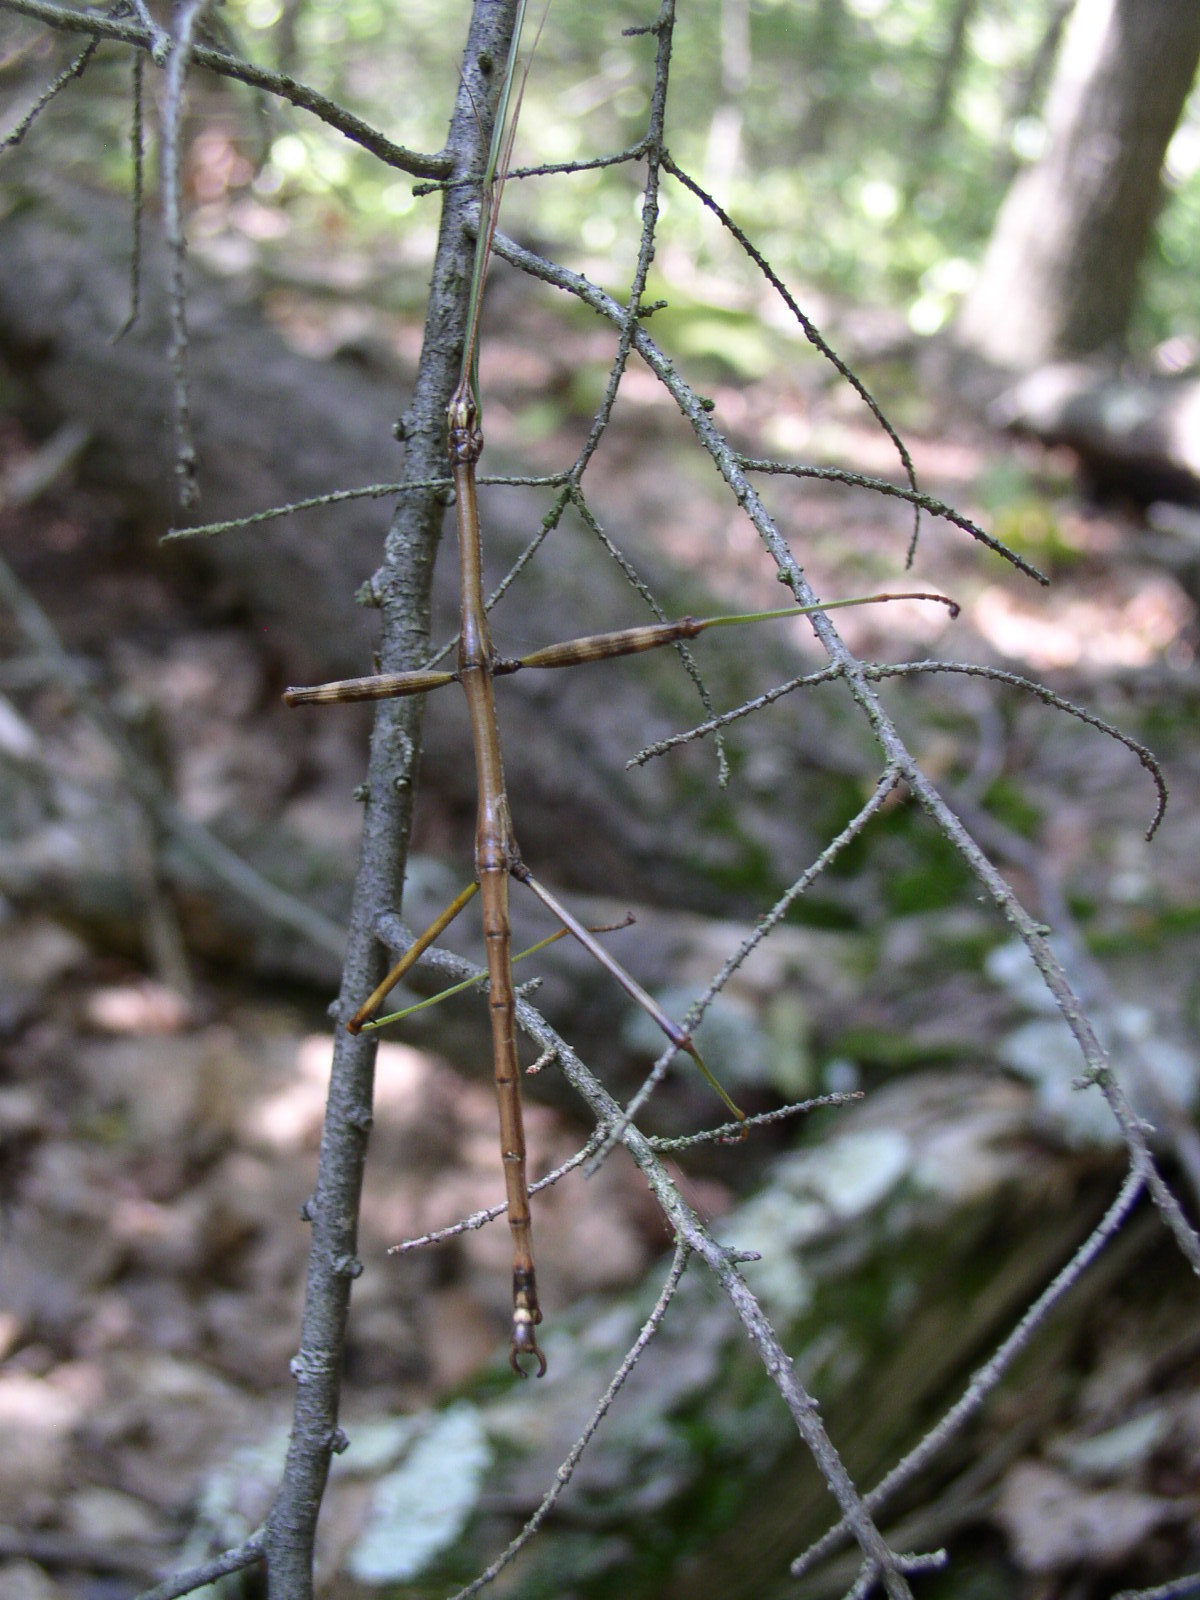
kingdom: Animalia
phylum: Arthropoda
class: Insecta
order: Phasmida
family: Diapheromeridae
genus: Diapheromera
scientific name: Diapheromera femorata
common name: Common american walkingstick
